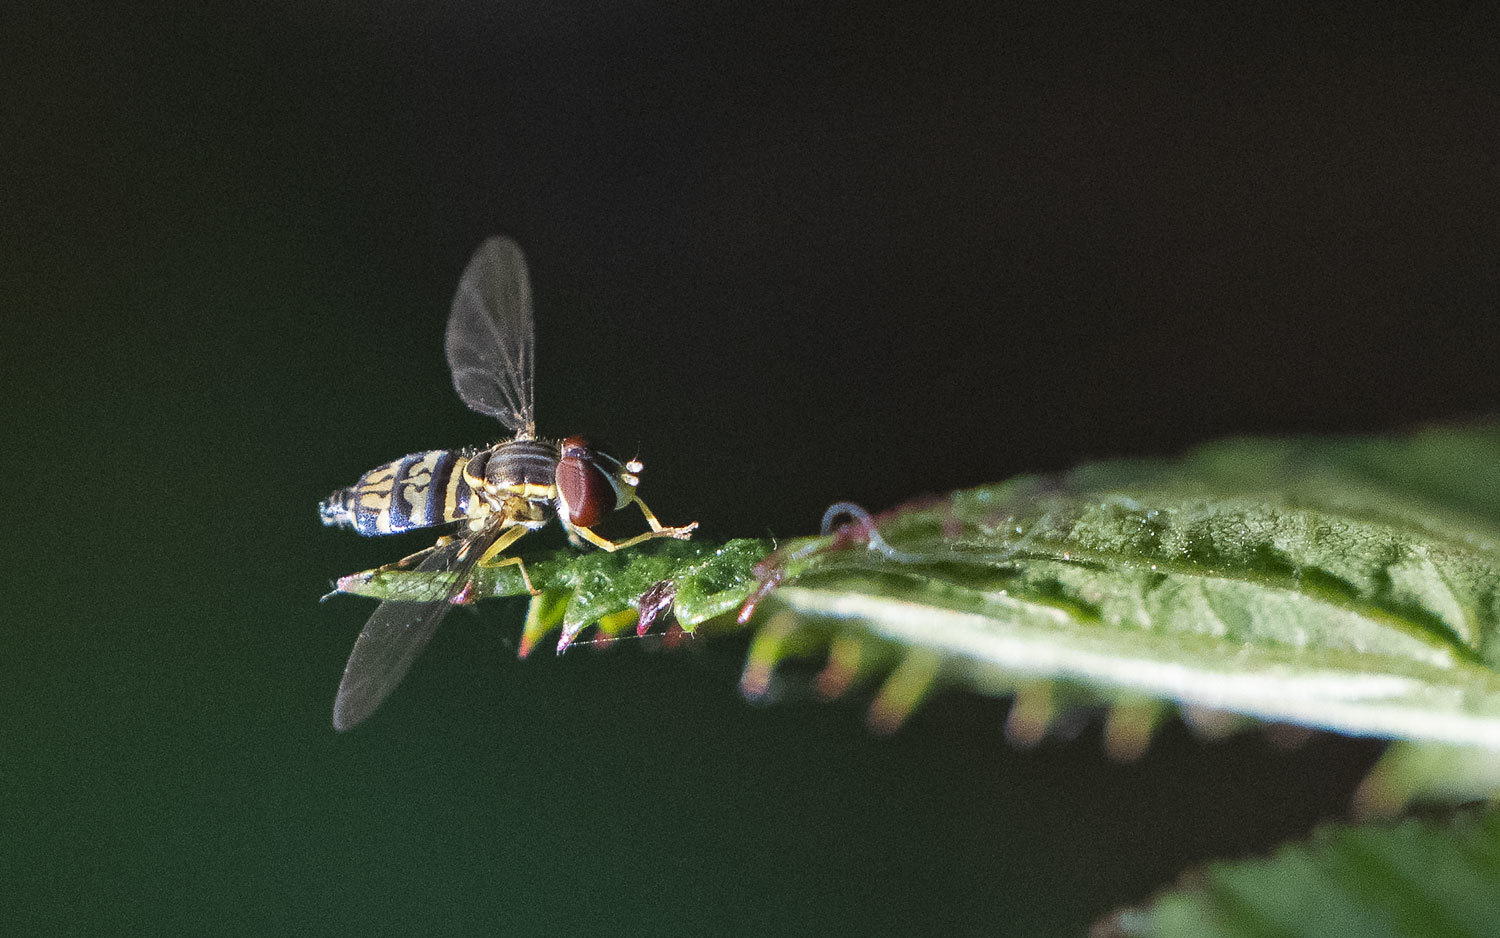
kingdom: Animalia
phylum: Arthropoda
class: Insecta
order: Diptera
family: Syrphidae
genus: Toxomerus
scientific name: Toxomerus geminatus
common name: Eastern calligrapher
